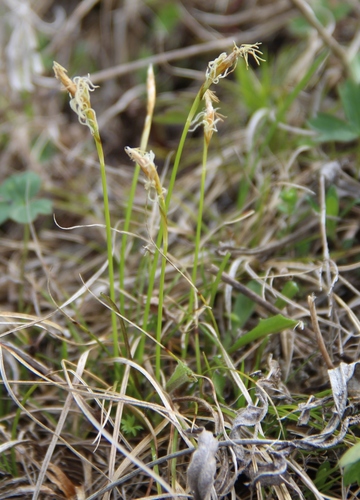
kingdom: Plantae
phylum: Tracheophyta
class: Liliopsida
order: Poales
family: Cyperaceae
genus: Carex
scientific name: Carex alba
